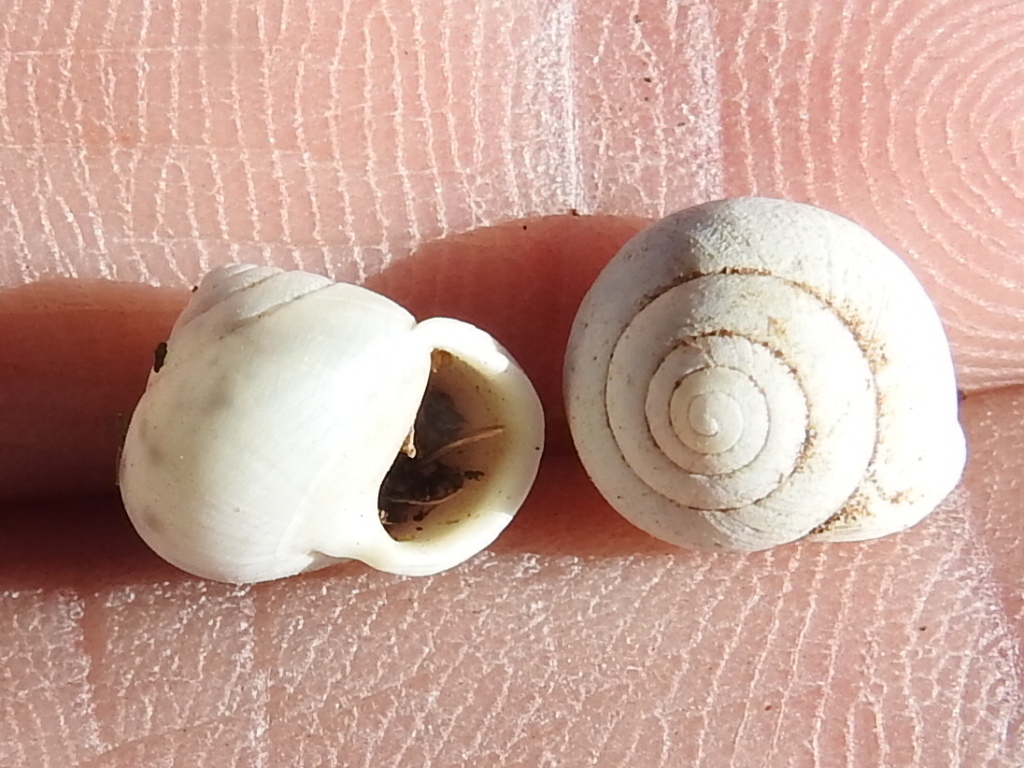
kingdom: Animalia
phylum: Mollusca
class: Gastropoda
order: Cycloneritida
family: Helicinidae
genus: Helicina
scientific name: Helicina orbiculata
